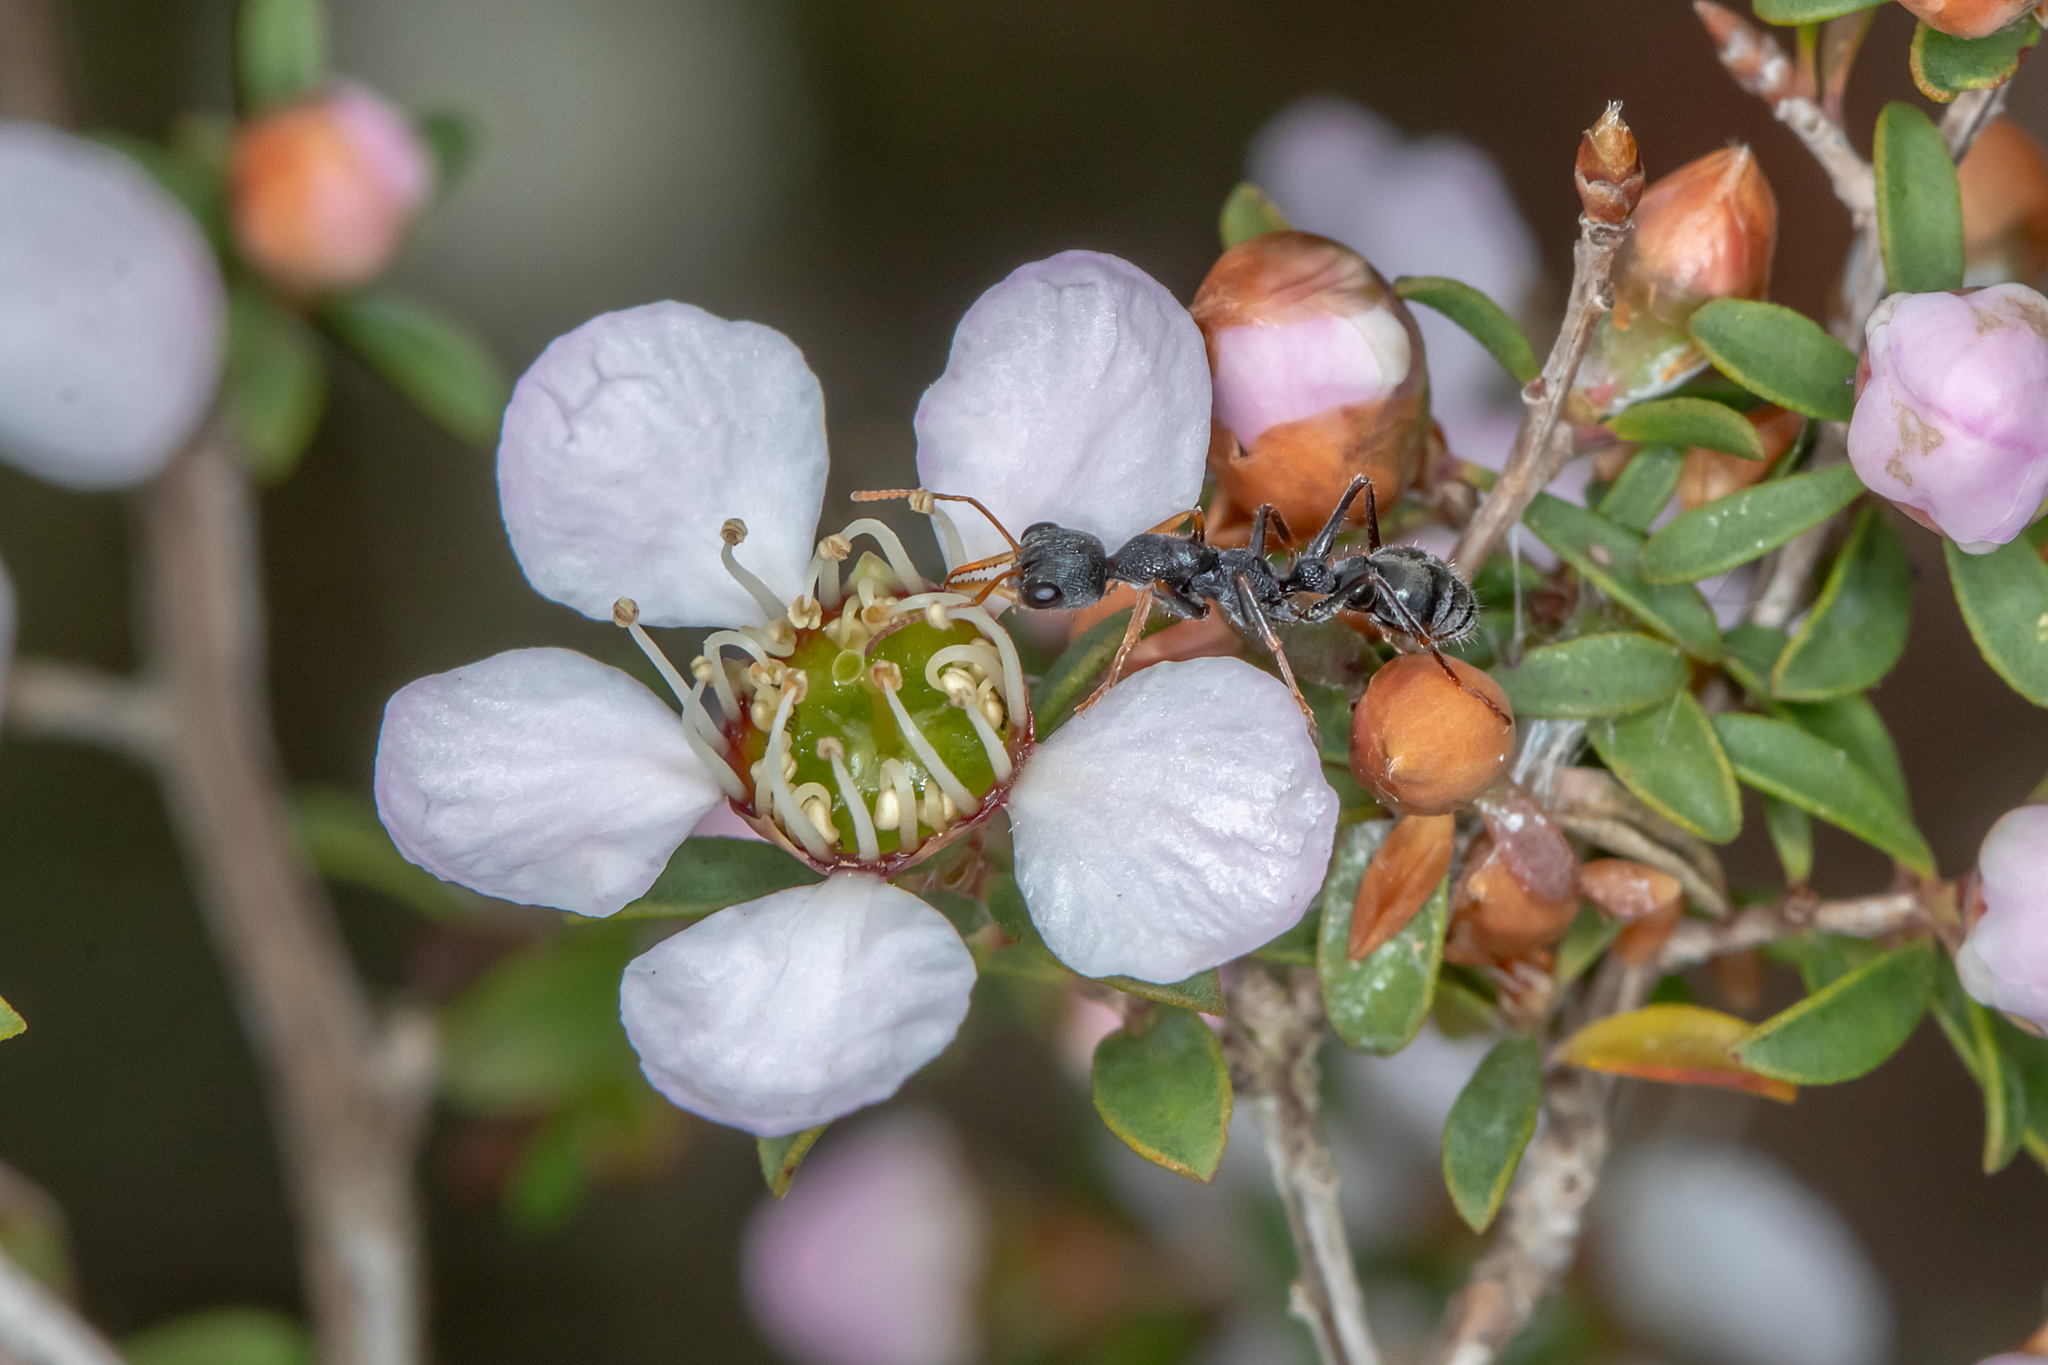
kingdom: Animalia
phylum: Arthropoda
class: Insecta
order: Hymenoptera
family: Formicidae
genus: Myrmecia
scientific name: Myrmecia urens
